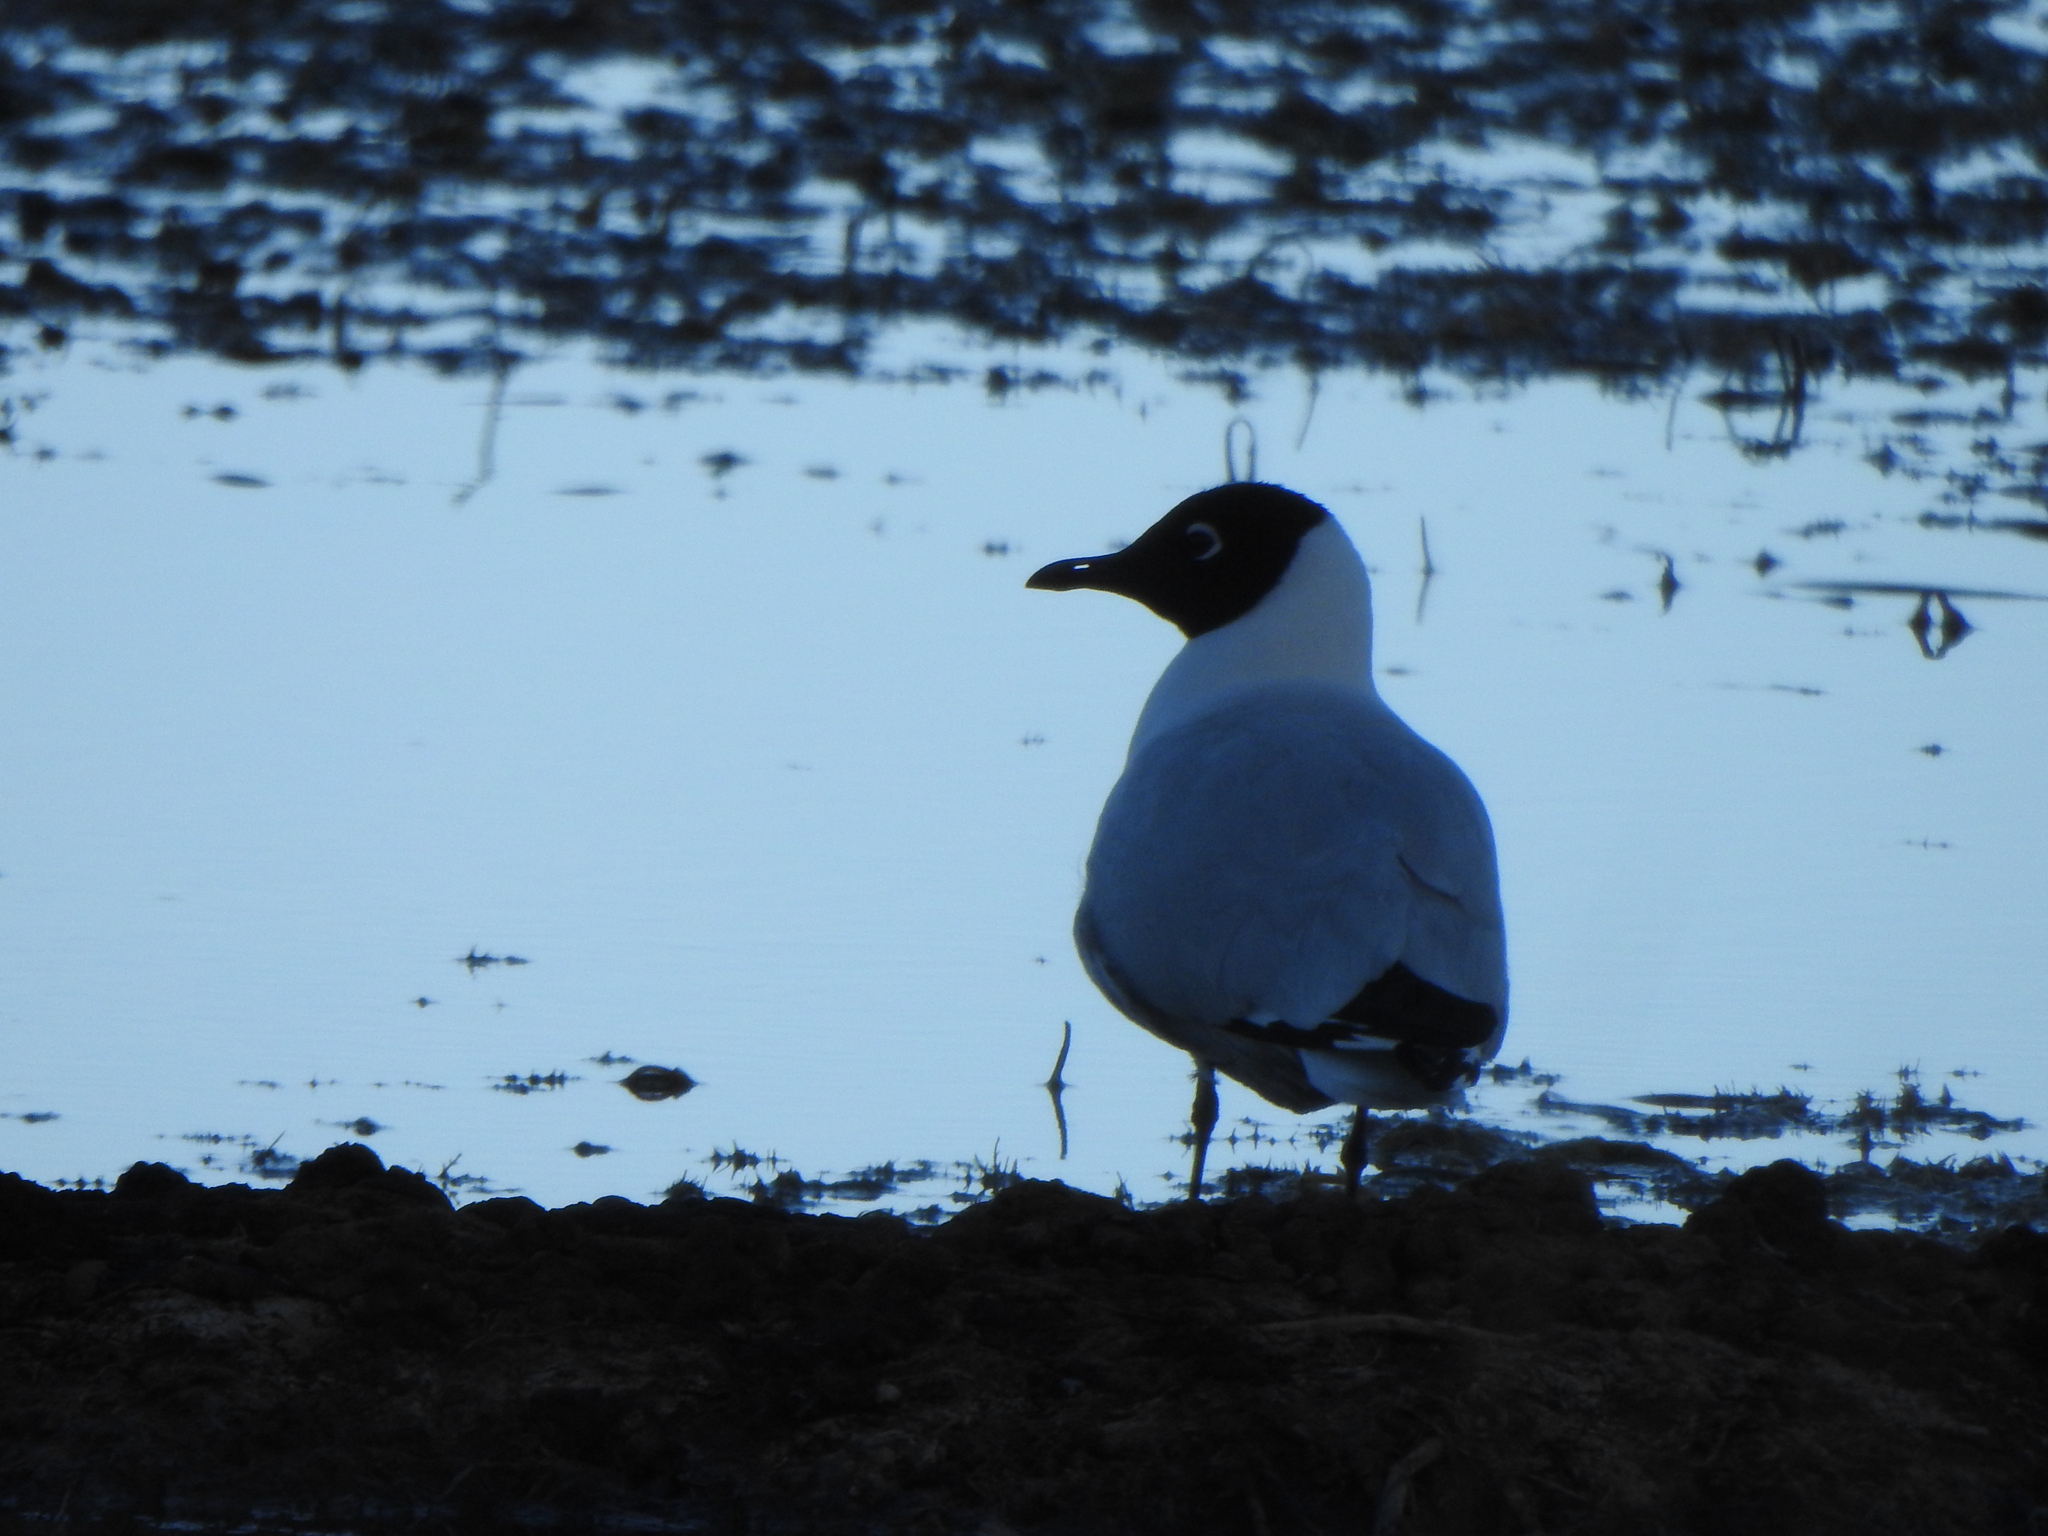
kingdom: Animalia
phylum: Chordata
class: Aves
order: Charadriiformes
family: Laridae
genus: Chroicocephalus
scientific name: Chroicocephalus serranus
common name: Andean gull
